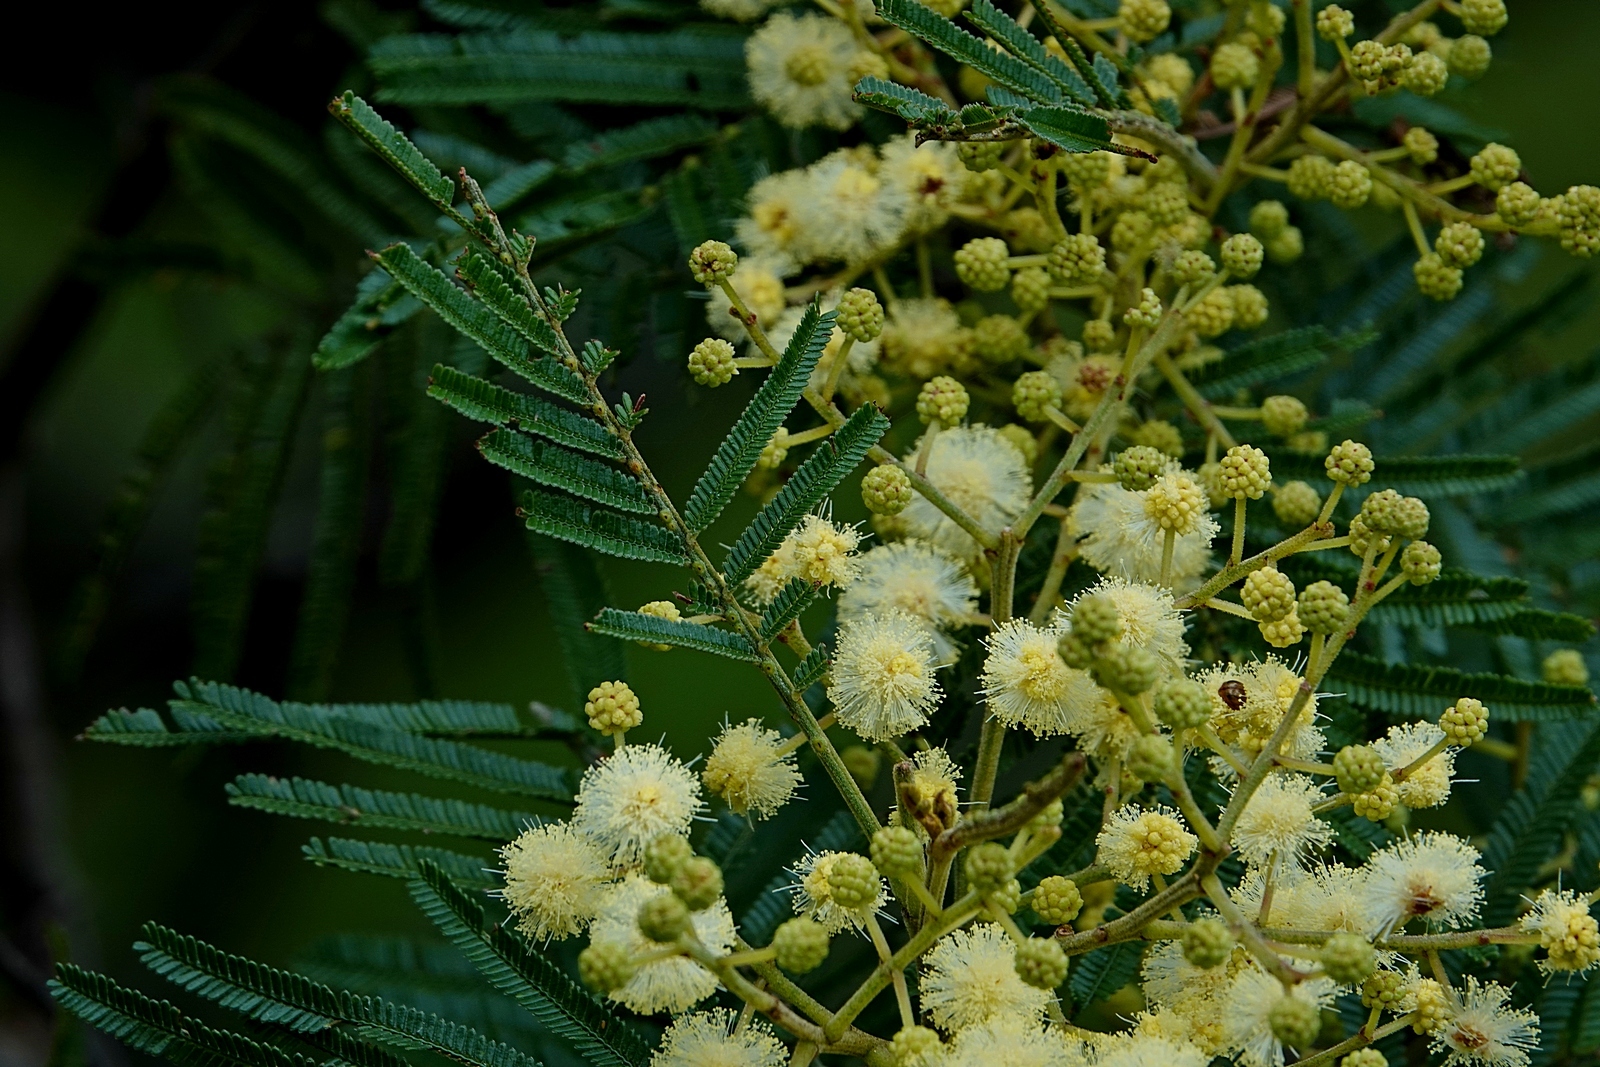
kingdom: Plantae
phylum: Tracheophyta
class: Magnoliopsida
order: Fabales
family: Fabaceae
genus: Acacia
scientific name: Acacia mearnsii
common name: Black wattle
